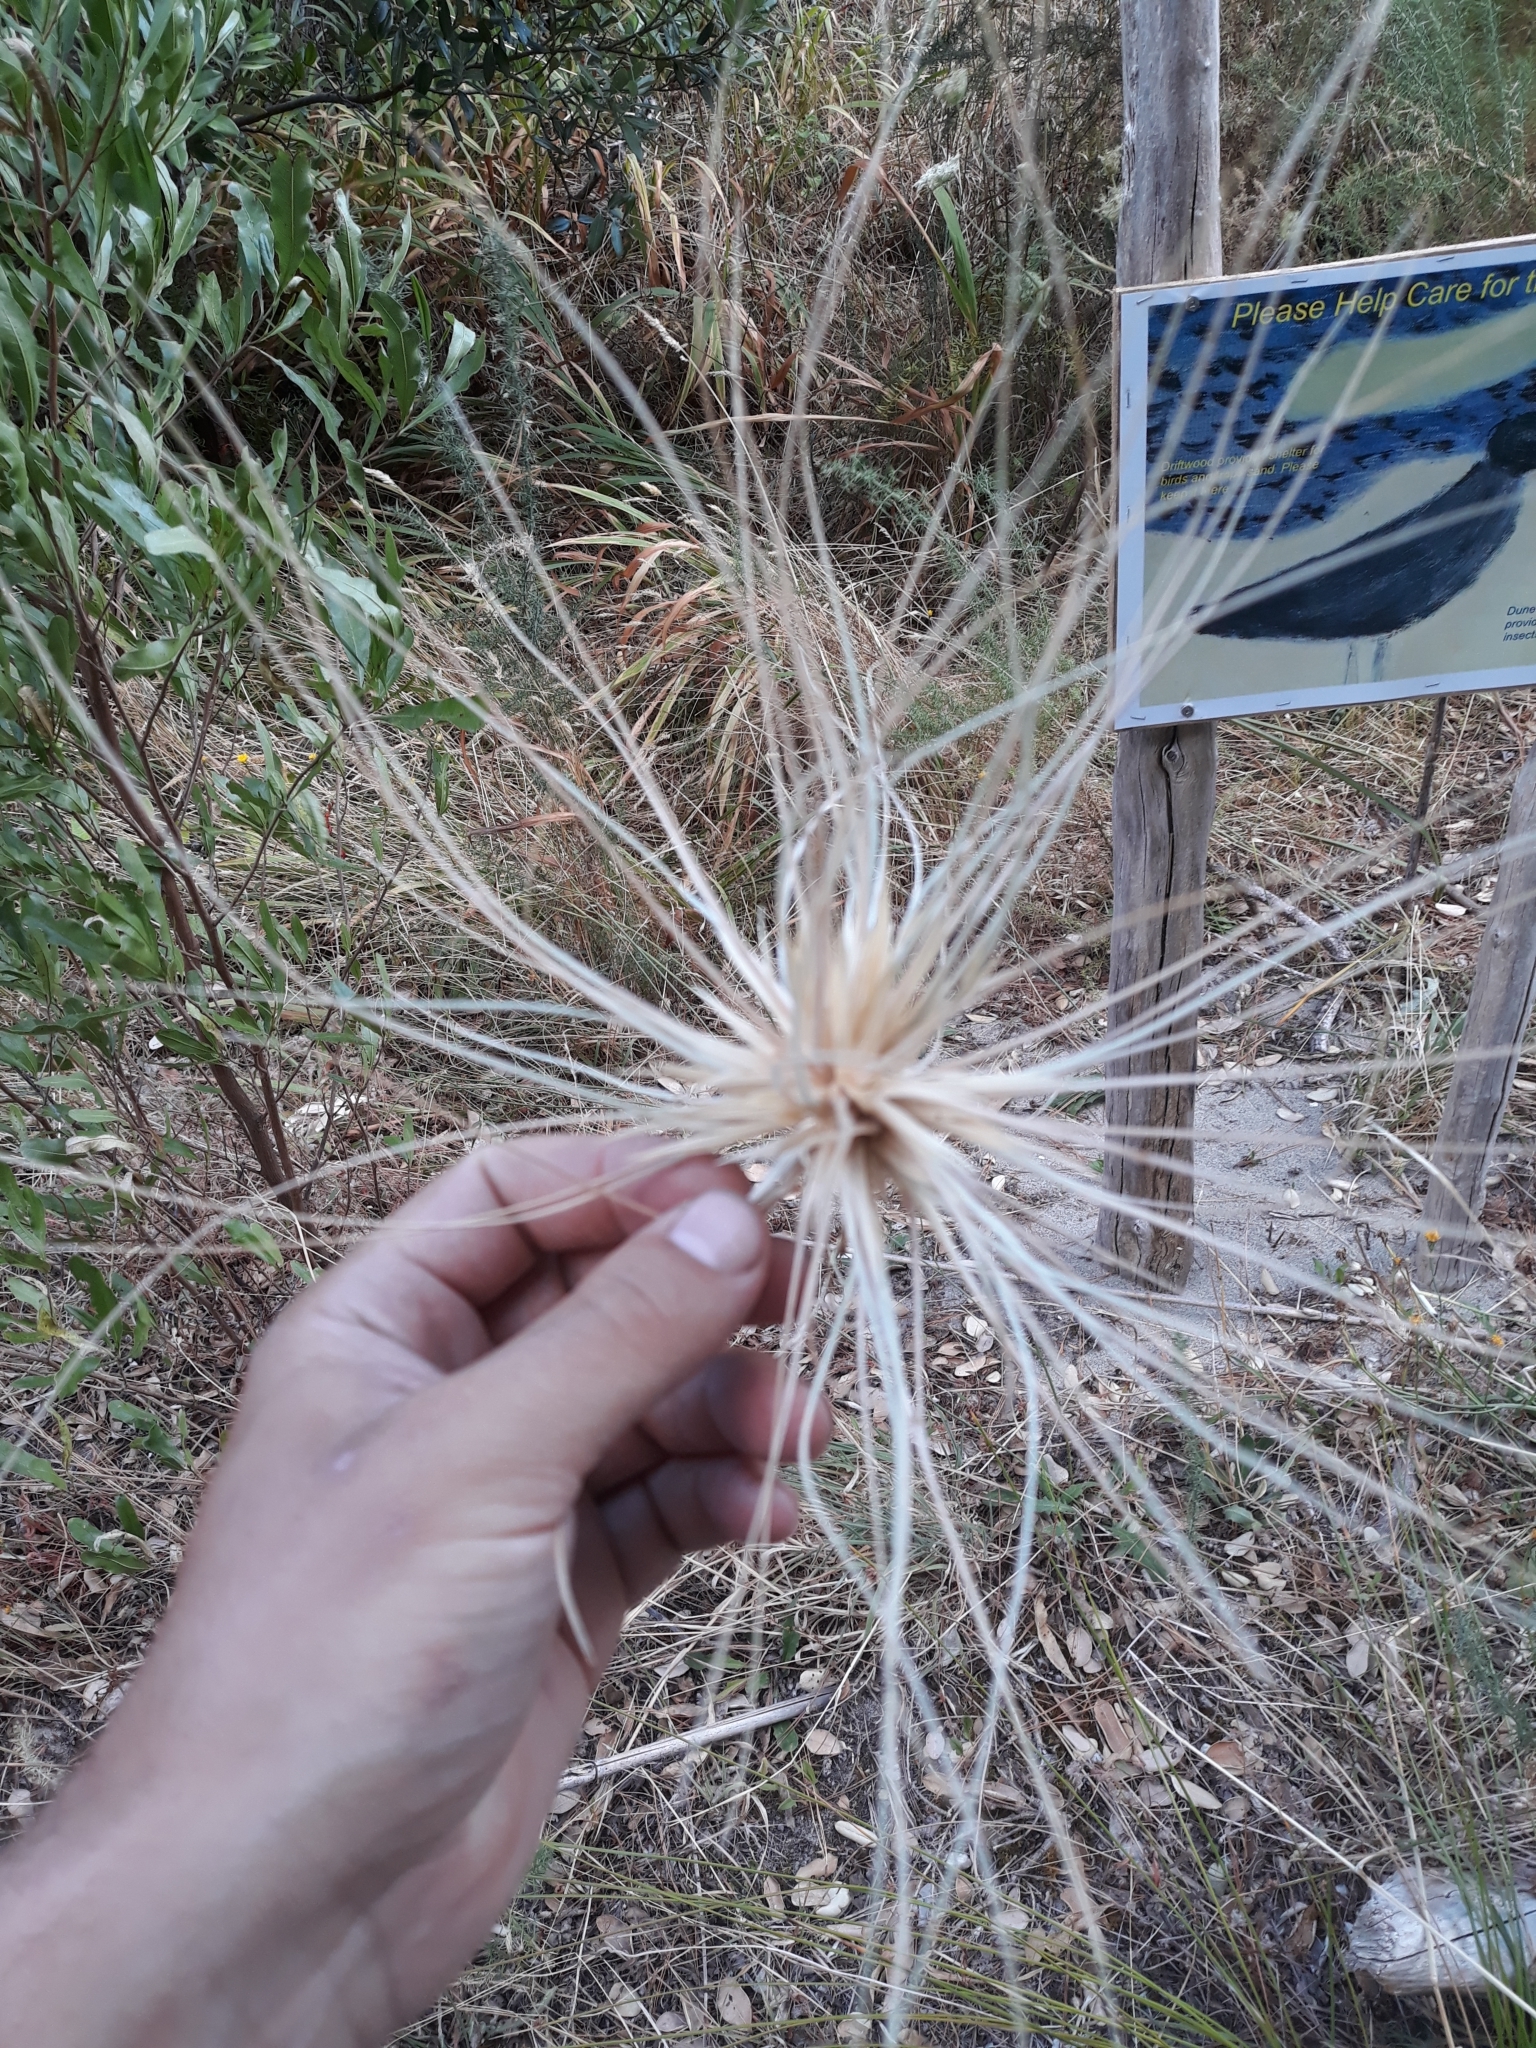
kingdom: Plantae
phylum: Tracheophyta
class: Liliopsida
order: Poales
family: Poaceae
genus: Spinifex
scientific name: Spinifex sericeus
